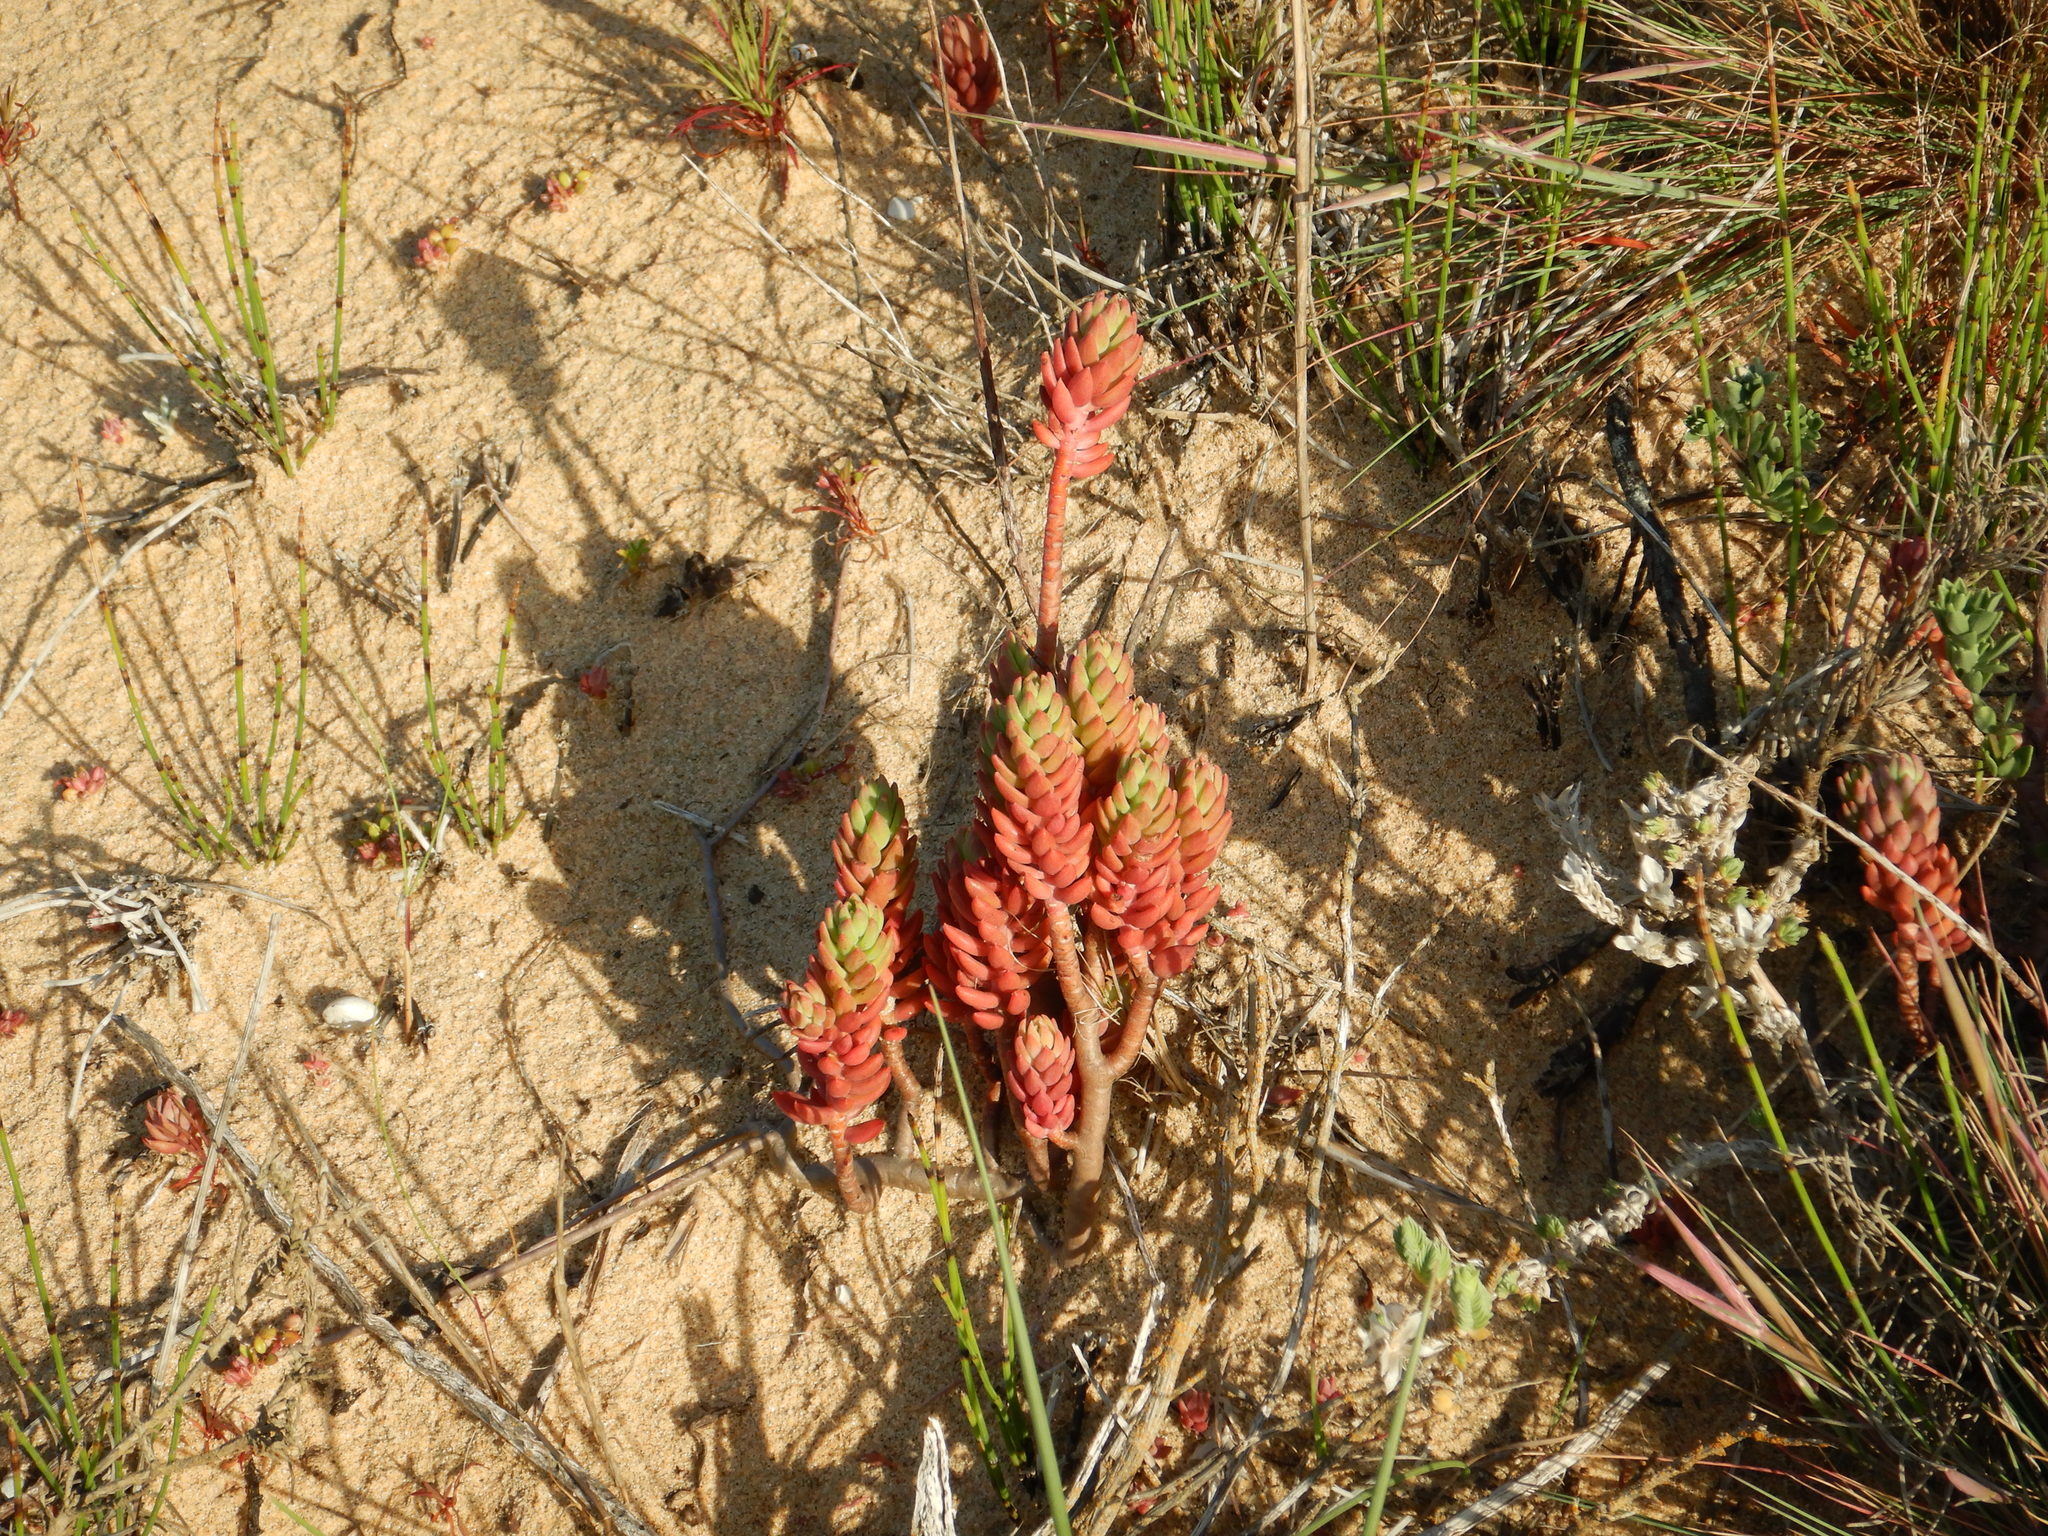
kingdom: Plantae
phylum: Tracheophyta
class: Magnoliopsida
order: Saxifragales
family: Crassulaceae
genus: Petrosedum
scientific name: Petrosedum sediforme
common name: Pale stonecrop
